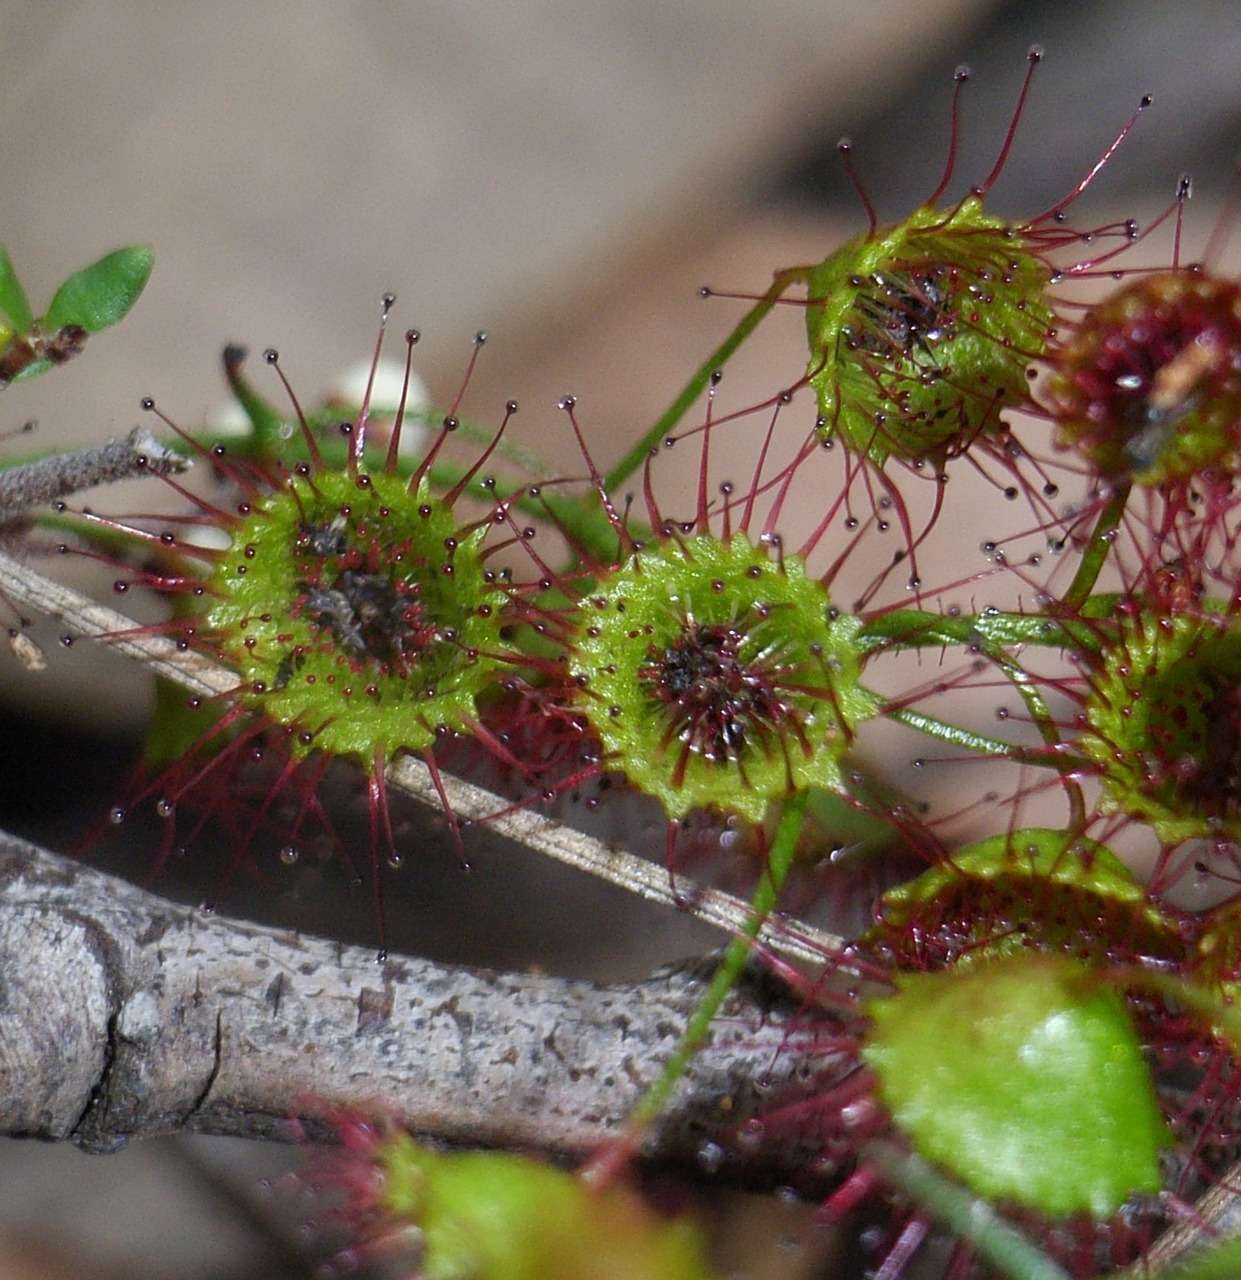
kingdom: Plantae
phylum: Tracheophyta
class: Magnoliopsida
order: Caryophyllales
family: Droseraceae
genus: Drosera
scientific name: Drosera planchonii
